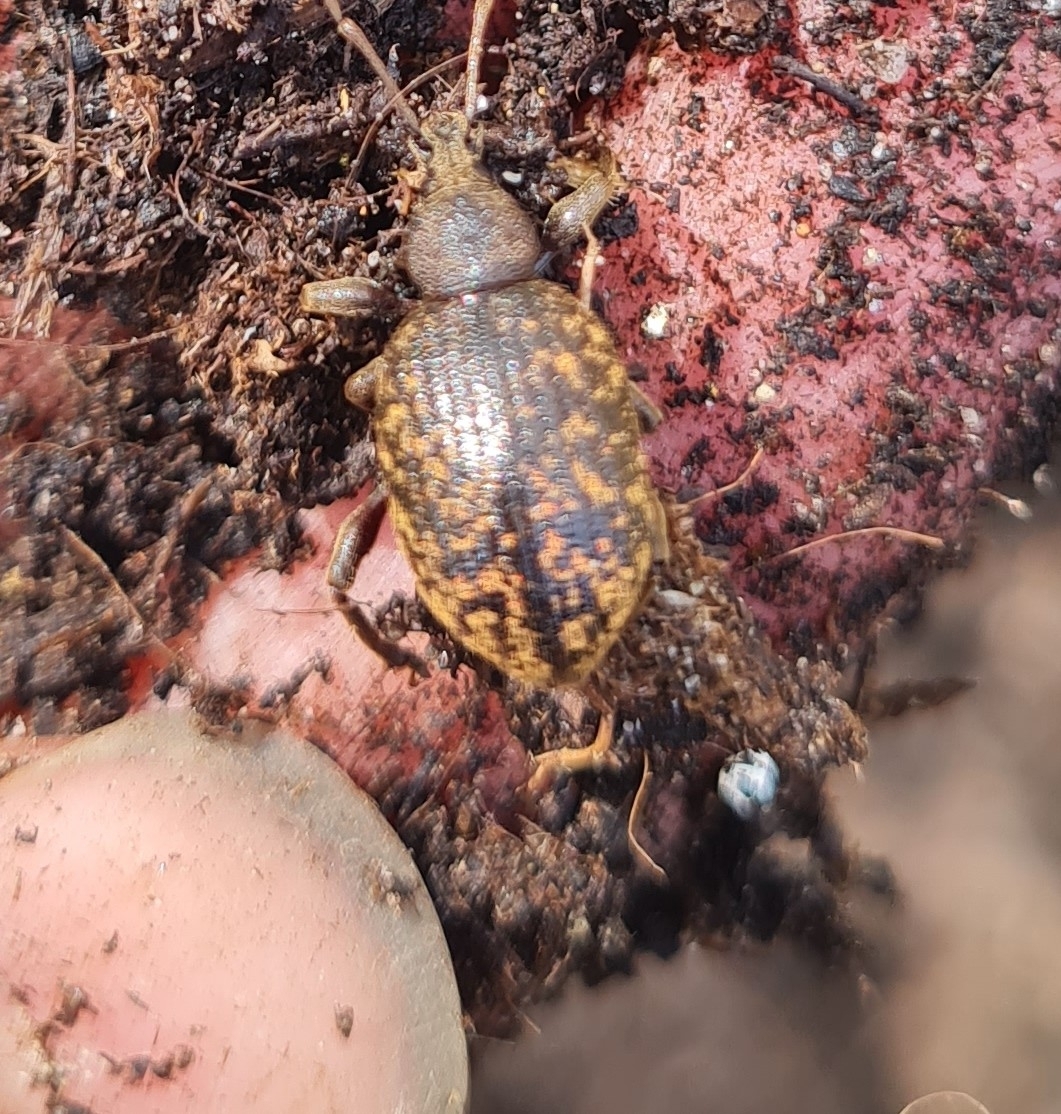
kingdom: Animalia
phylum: Arthropoda
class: Insecta
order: Coleoptera
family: Curculionidae
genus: Otiorhynchus
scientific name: Otiorhynchus aurifer
